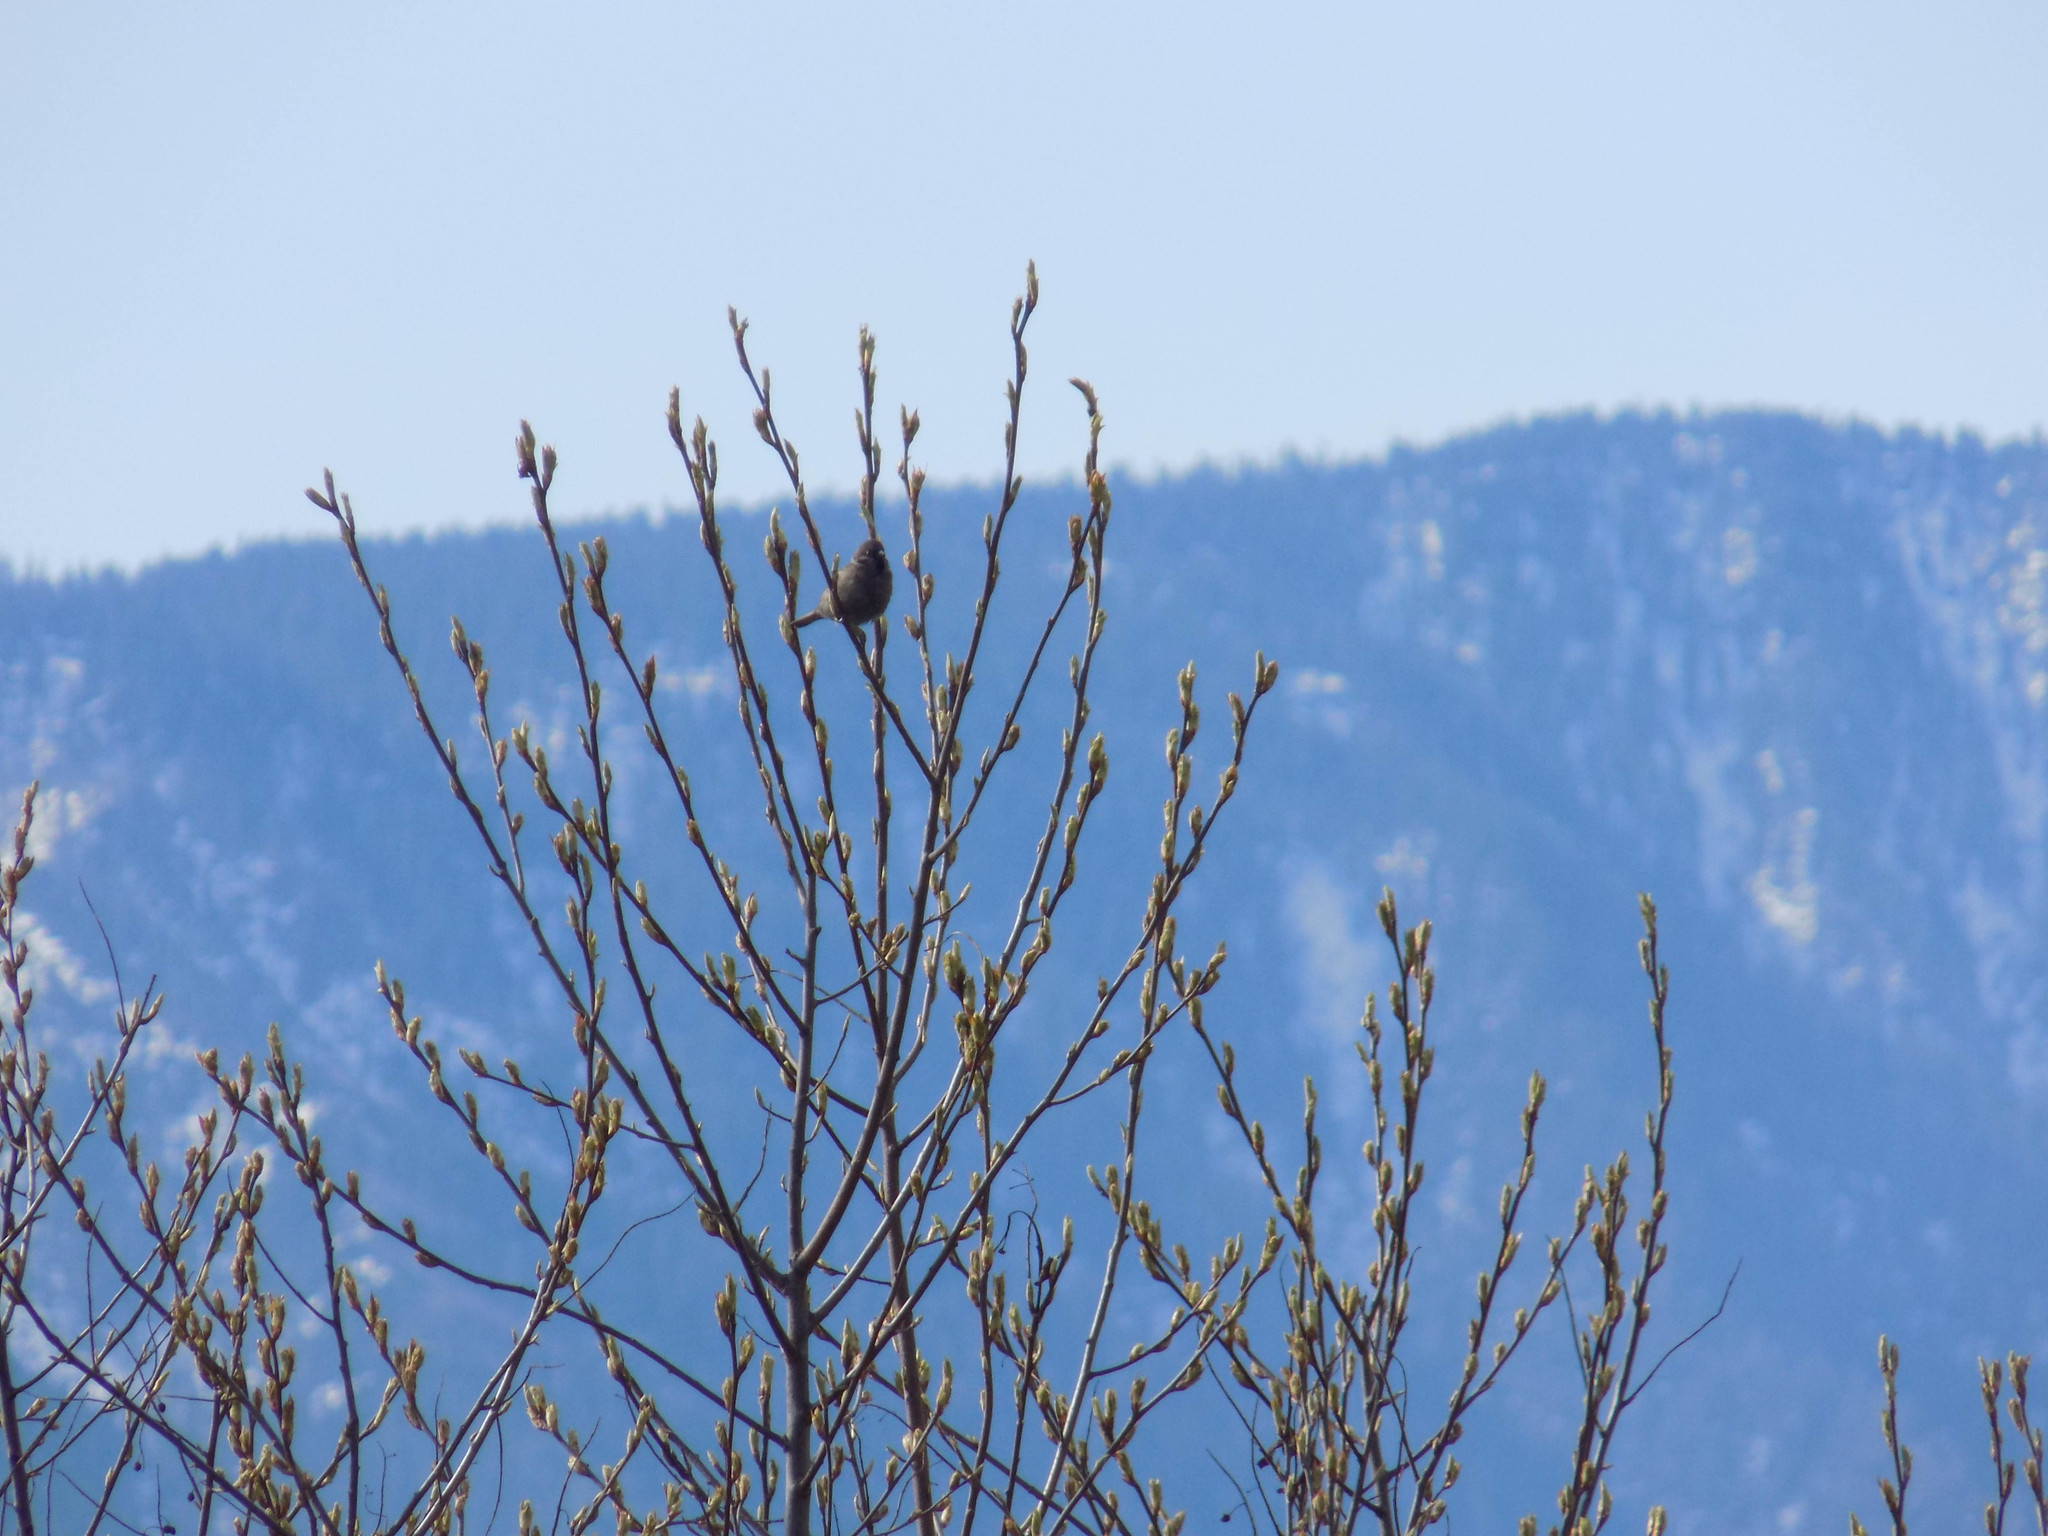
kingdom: Animalia
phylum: Chordata
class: Aves
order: Passeriformes
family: Passeridae
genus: Passer
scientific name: Passer montanus
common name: Eurasian tree sparrow
